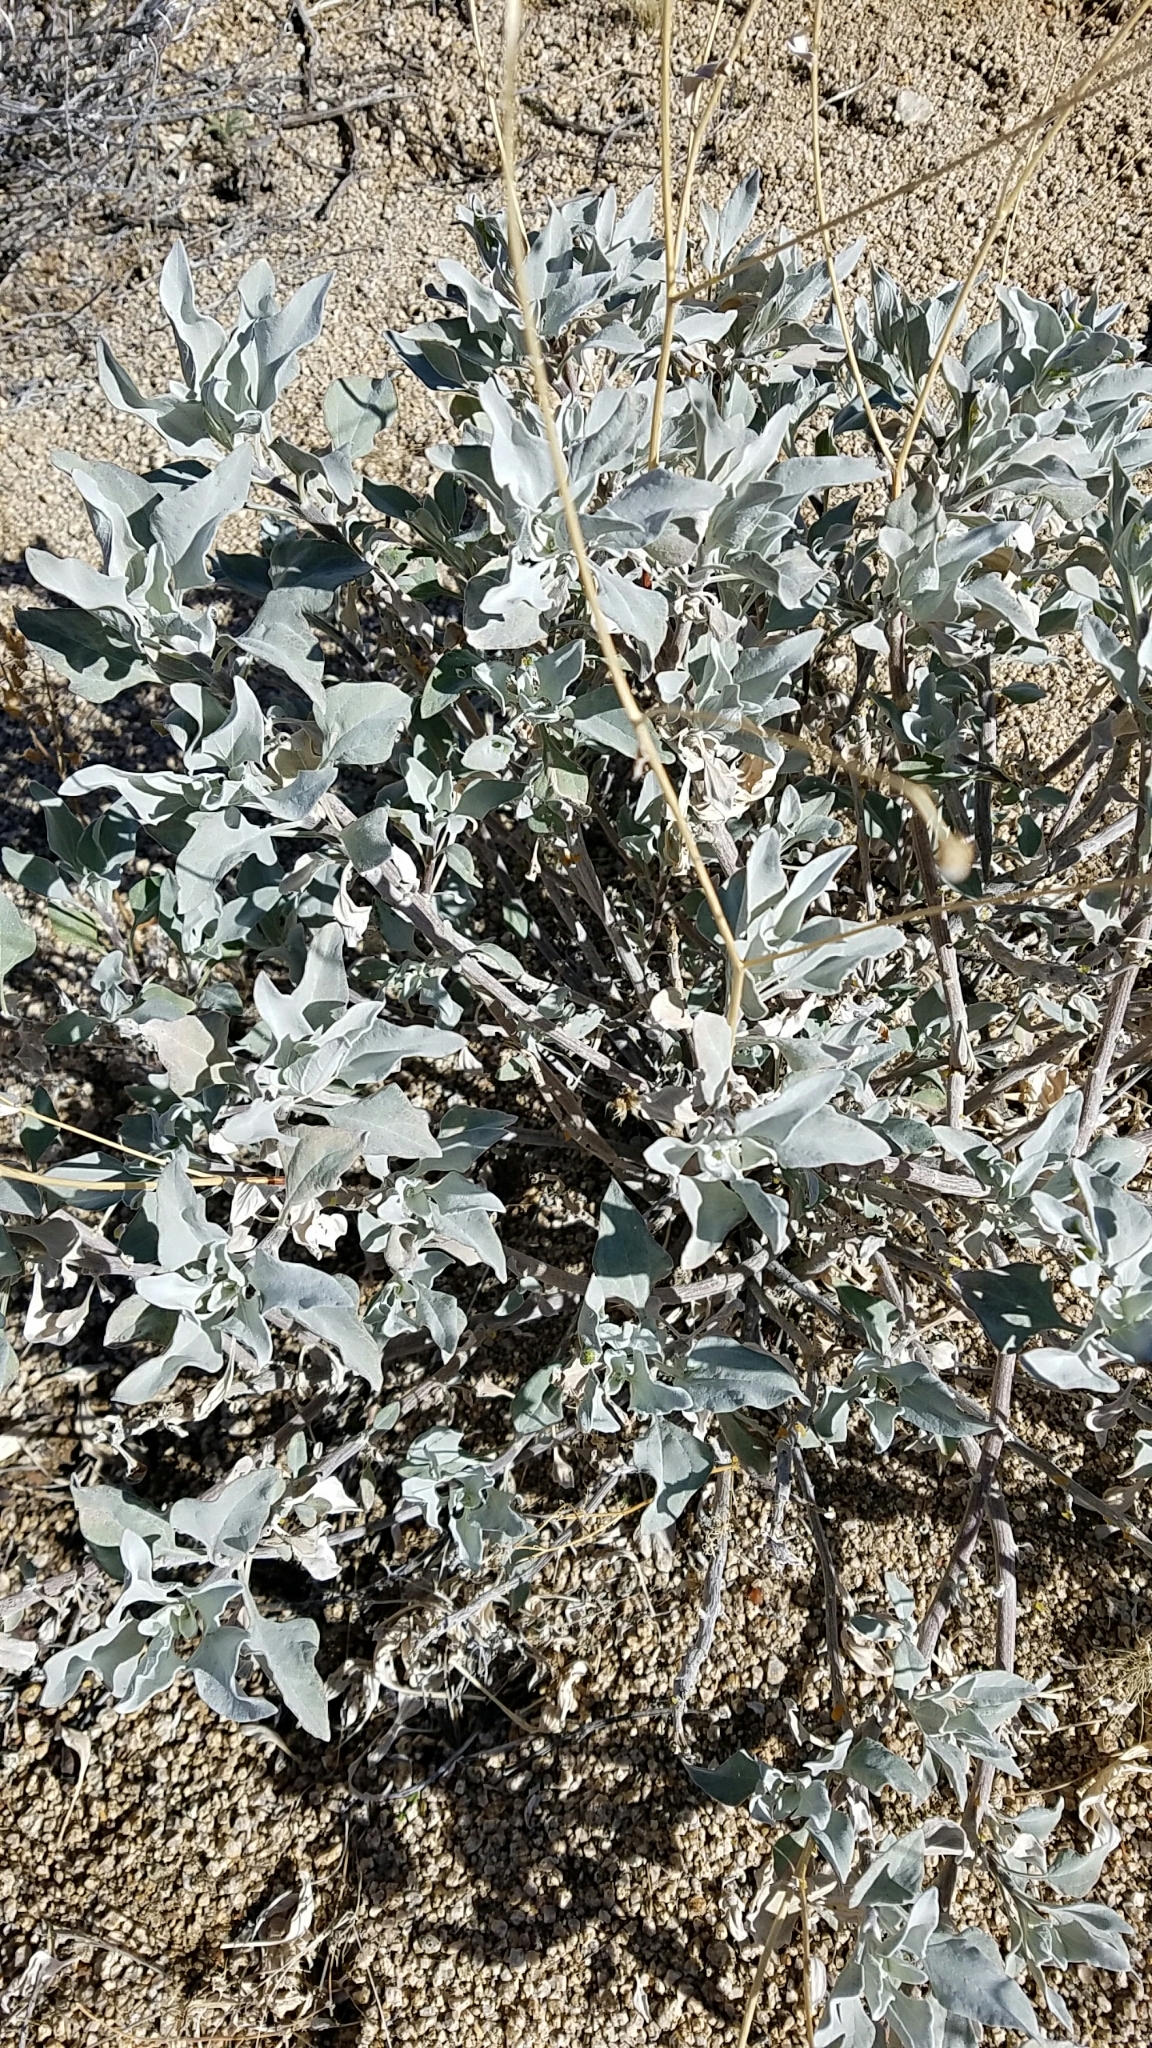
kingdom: Plantae
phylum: Tracheophyta
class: Magnoliopsida
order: Asterales
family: Asteraceae
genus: Encelia
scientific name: Encelia farinosa
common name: Brittlebush
